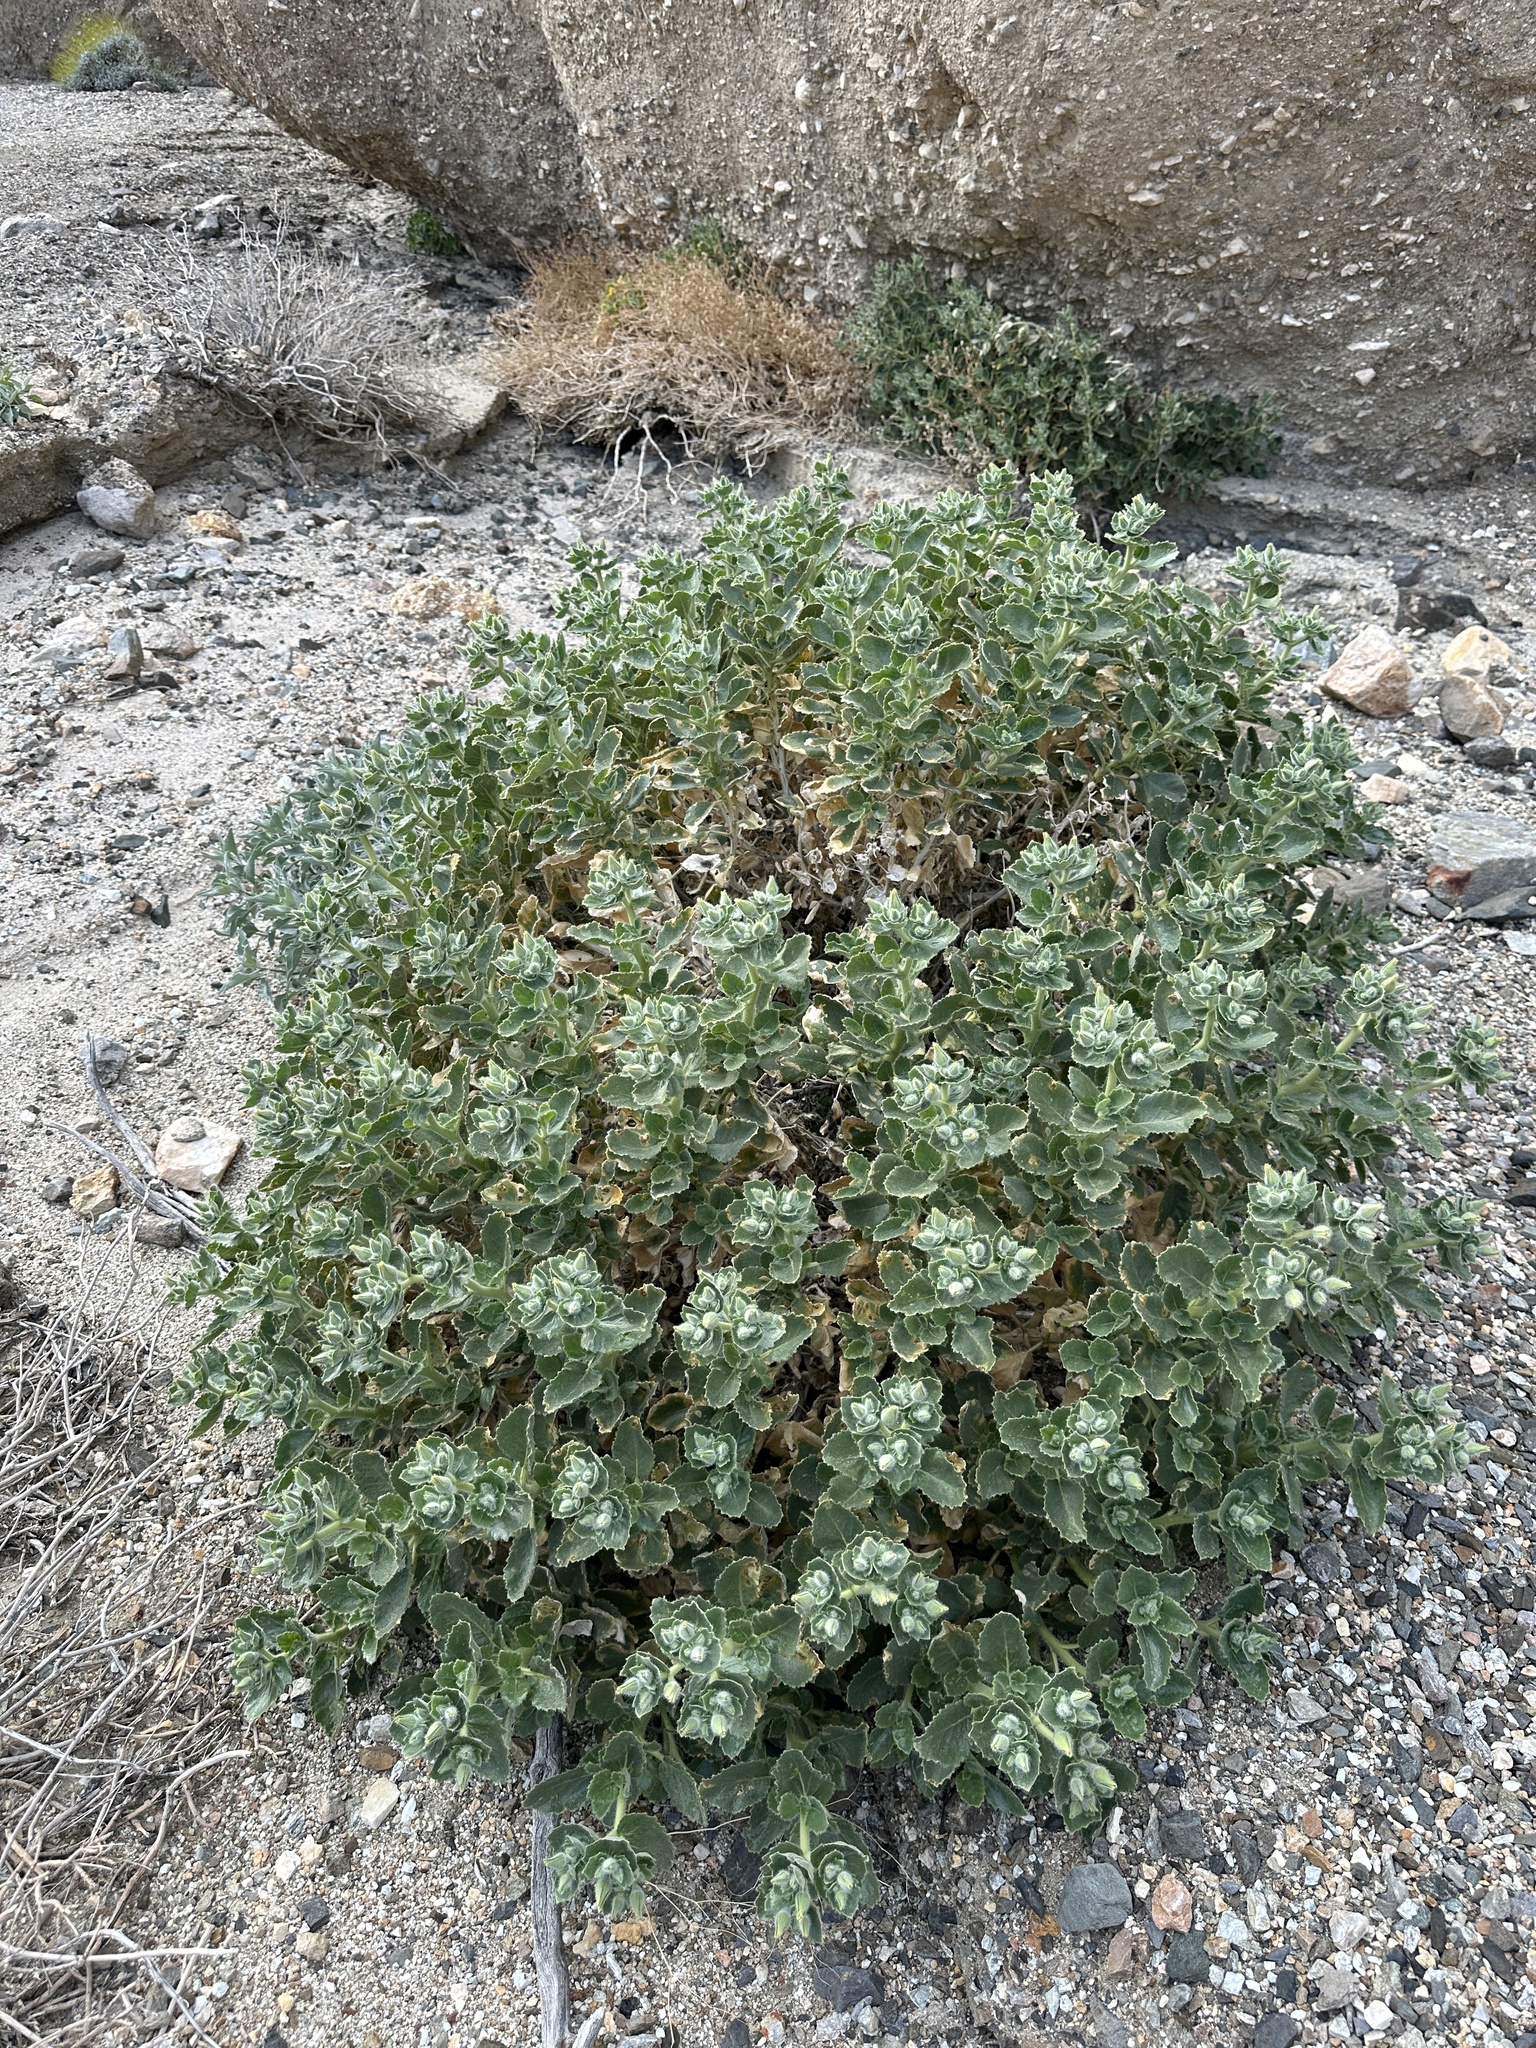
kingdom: Plantae
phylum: Tracheophyta
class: Magnoliopsida
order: Cornales
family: Loasaceae
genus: Eucnide
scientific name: Eucnide urens
